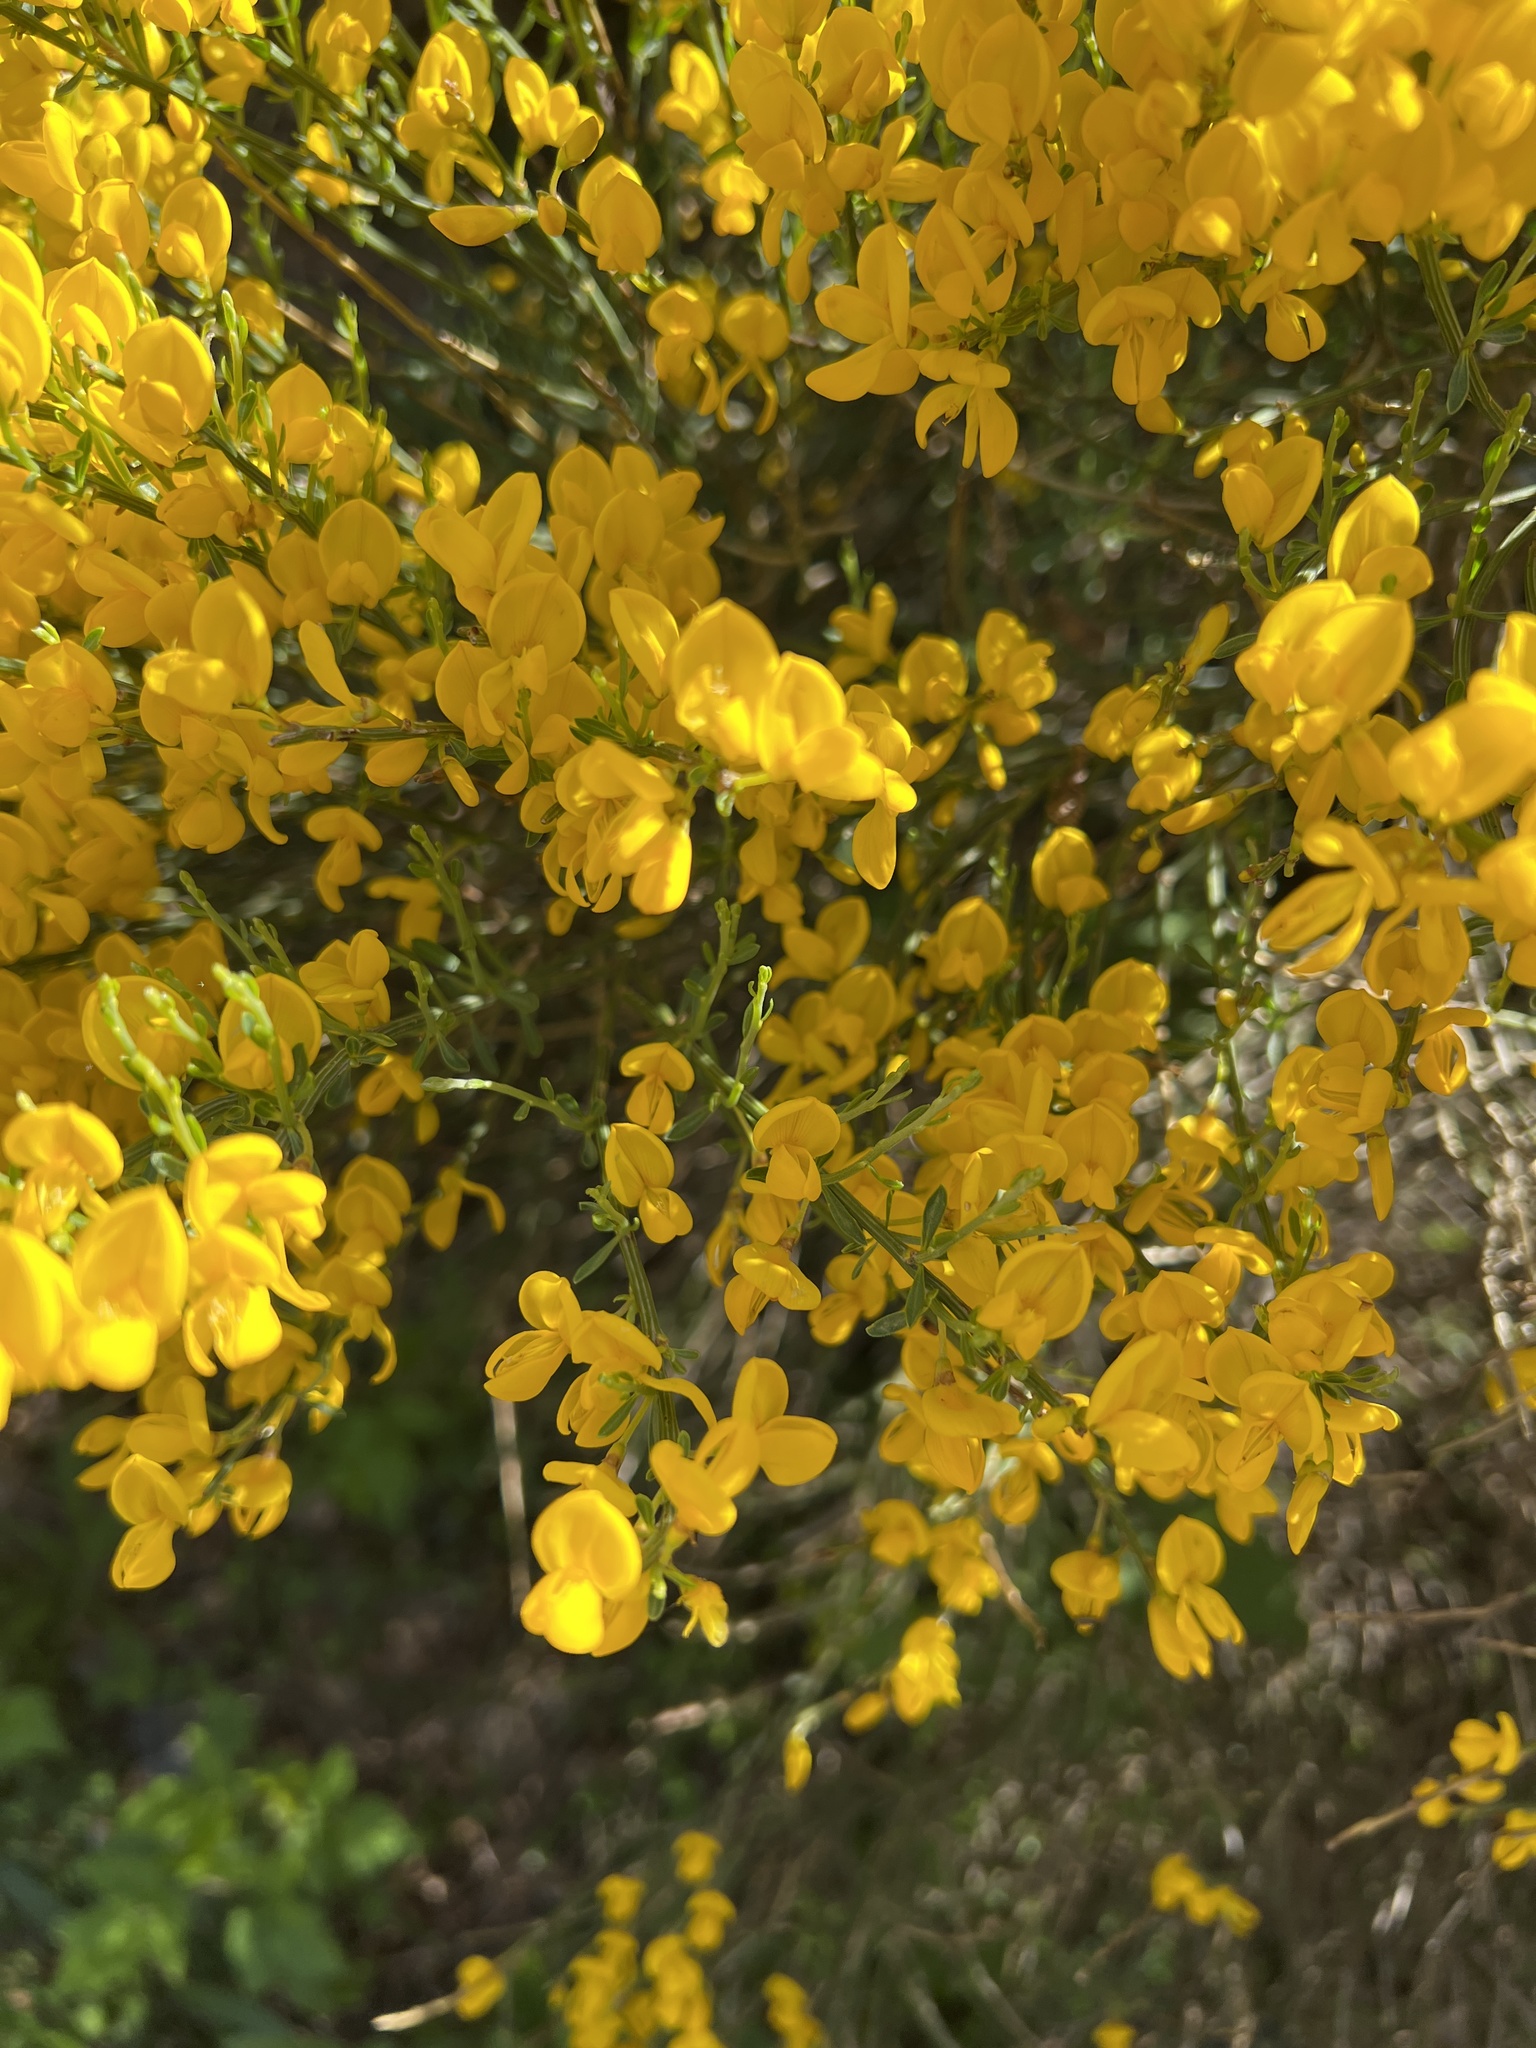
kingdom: Plantae
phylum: Tracheophyta
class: Magnoliopsida
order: Fabales
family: Fabaceae
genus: Cytisus
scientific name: Cytisus oromediterraneus
